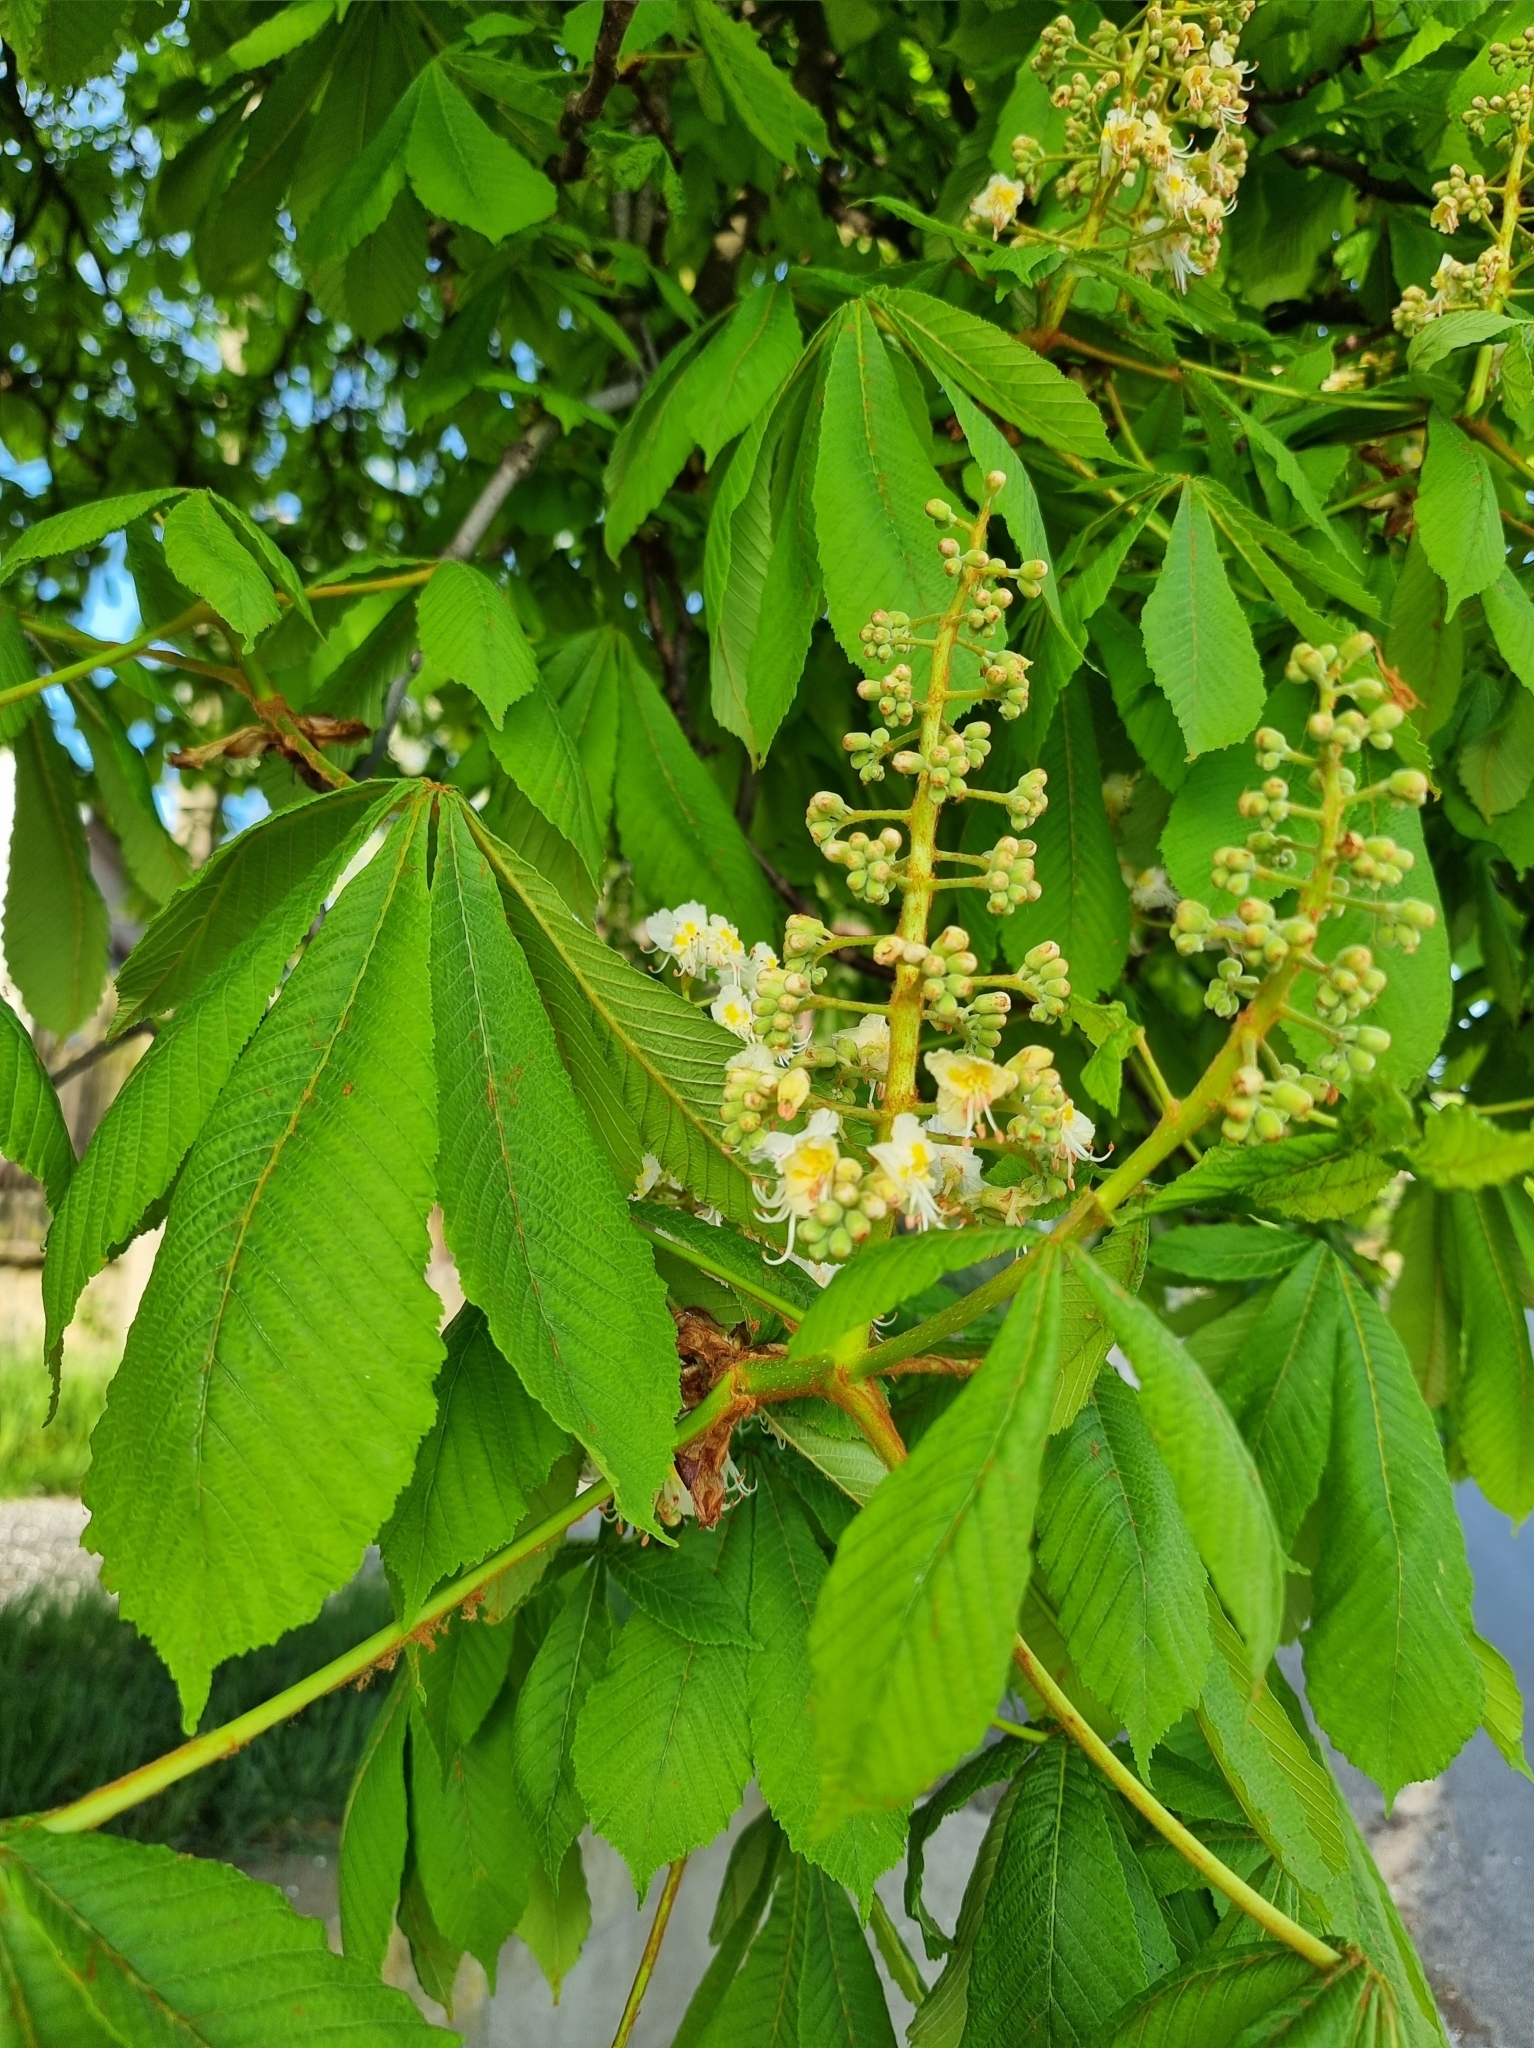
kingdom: Plantae
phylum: Tracheophyta
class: Magnoliopsida
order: Sapindales
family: Sapindaceae
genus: Aesculus
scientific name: Aesculus hippocastanum
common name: Horse-chestnut
